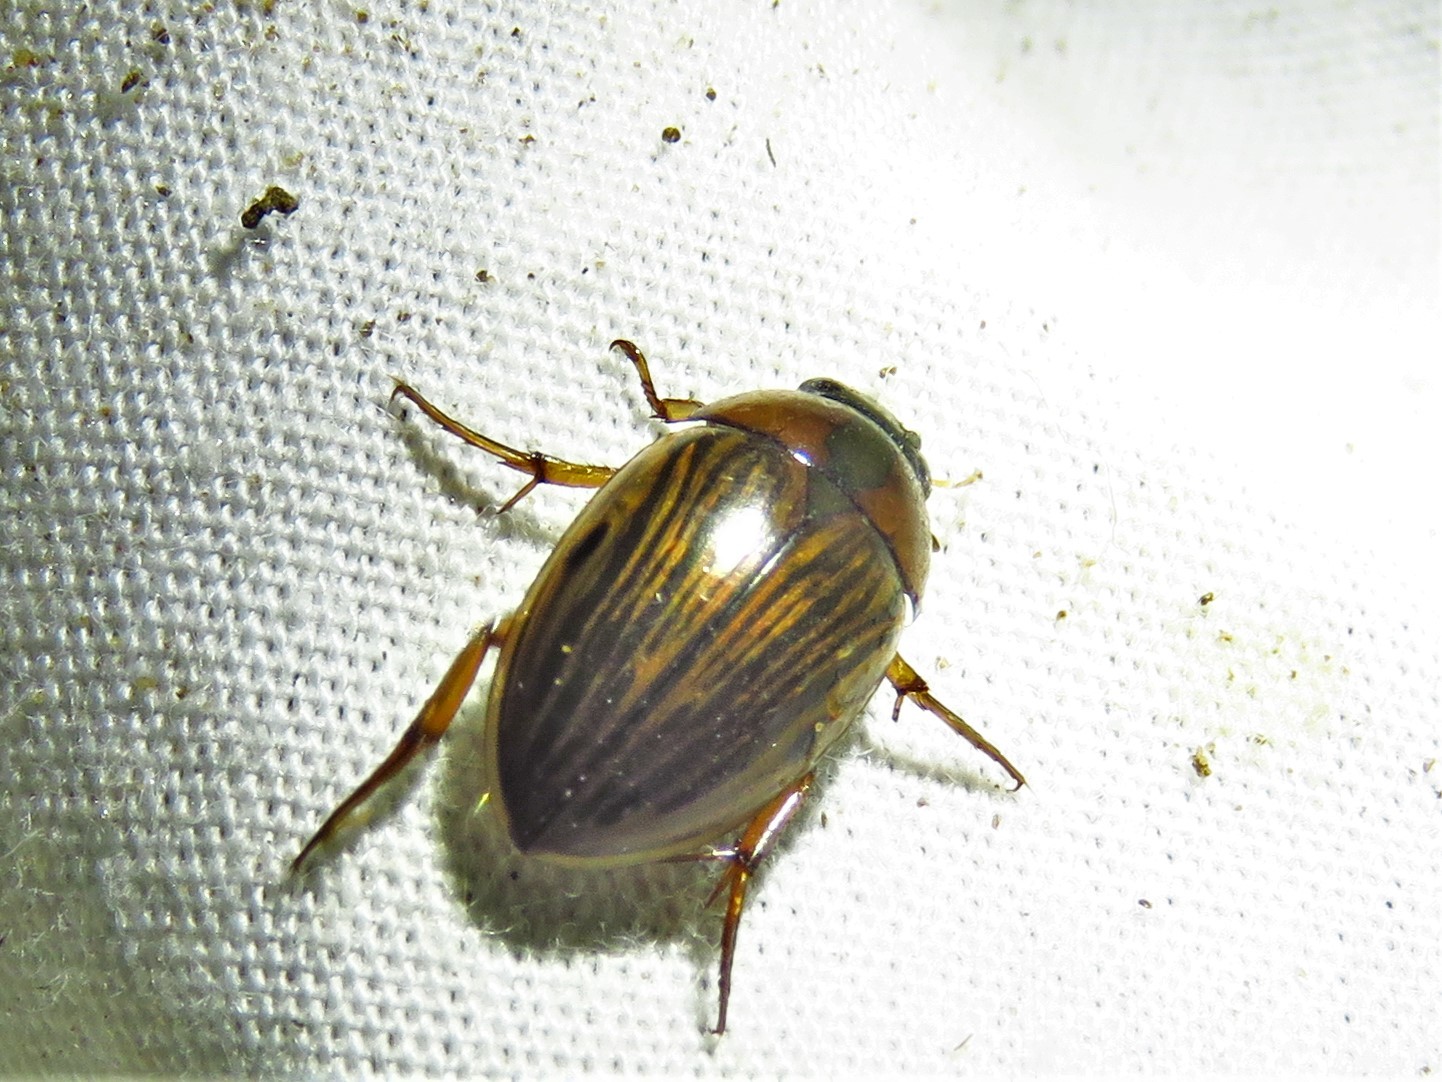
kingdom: Animalia
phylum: Arthropoda
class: Insecta
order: Coleoptera
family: Hydrophilidae
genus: Tropisternus
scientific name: Tropisternus collaris
